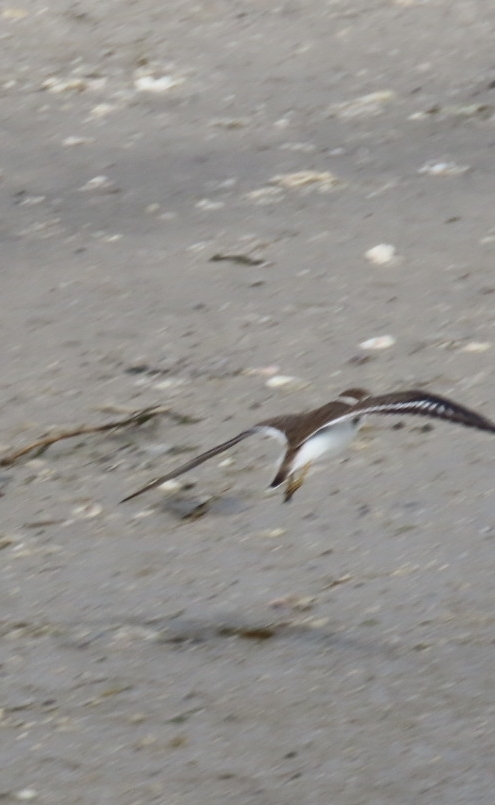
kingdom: Animalia
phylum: Chordata
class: Aves
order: Charadriiformes
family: Charadriidae
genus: Charadrius
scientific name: Charadrius semipalmatus
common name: Semipalmated plover
